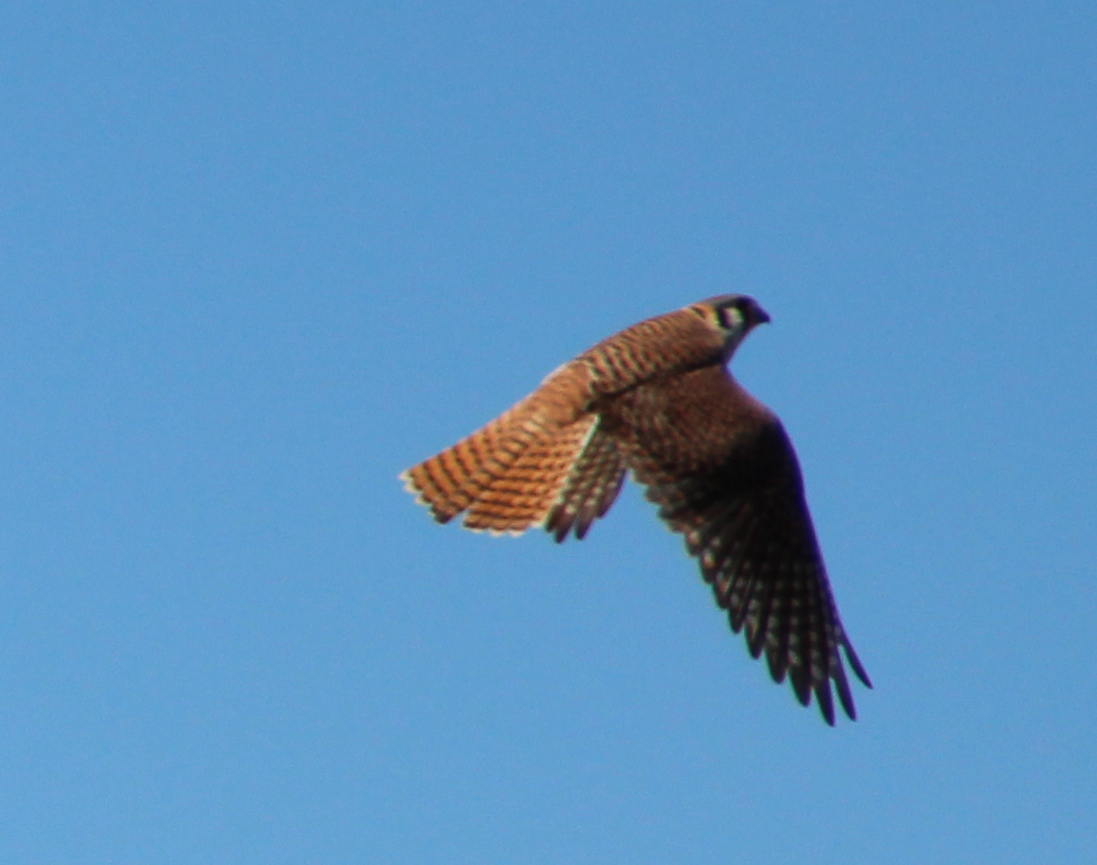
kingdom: Animalia
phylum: Chordata
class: Aves
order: Falconiformes
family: Falconidae
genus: Falco
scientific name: Falco sparverius
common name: American kestrel
